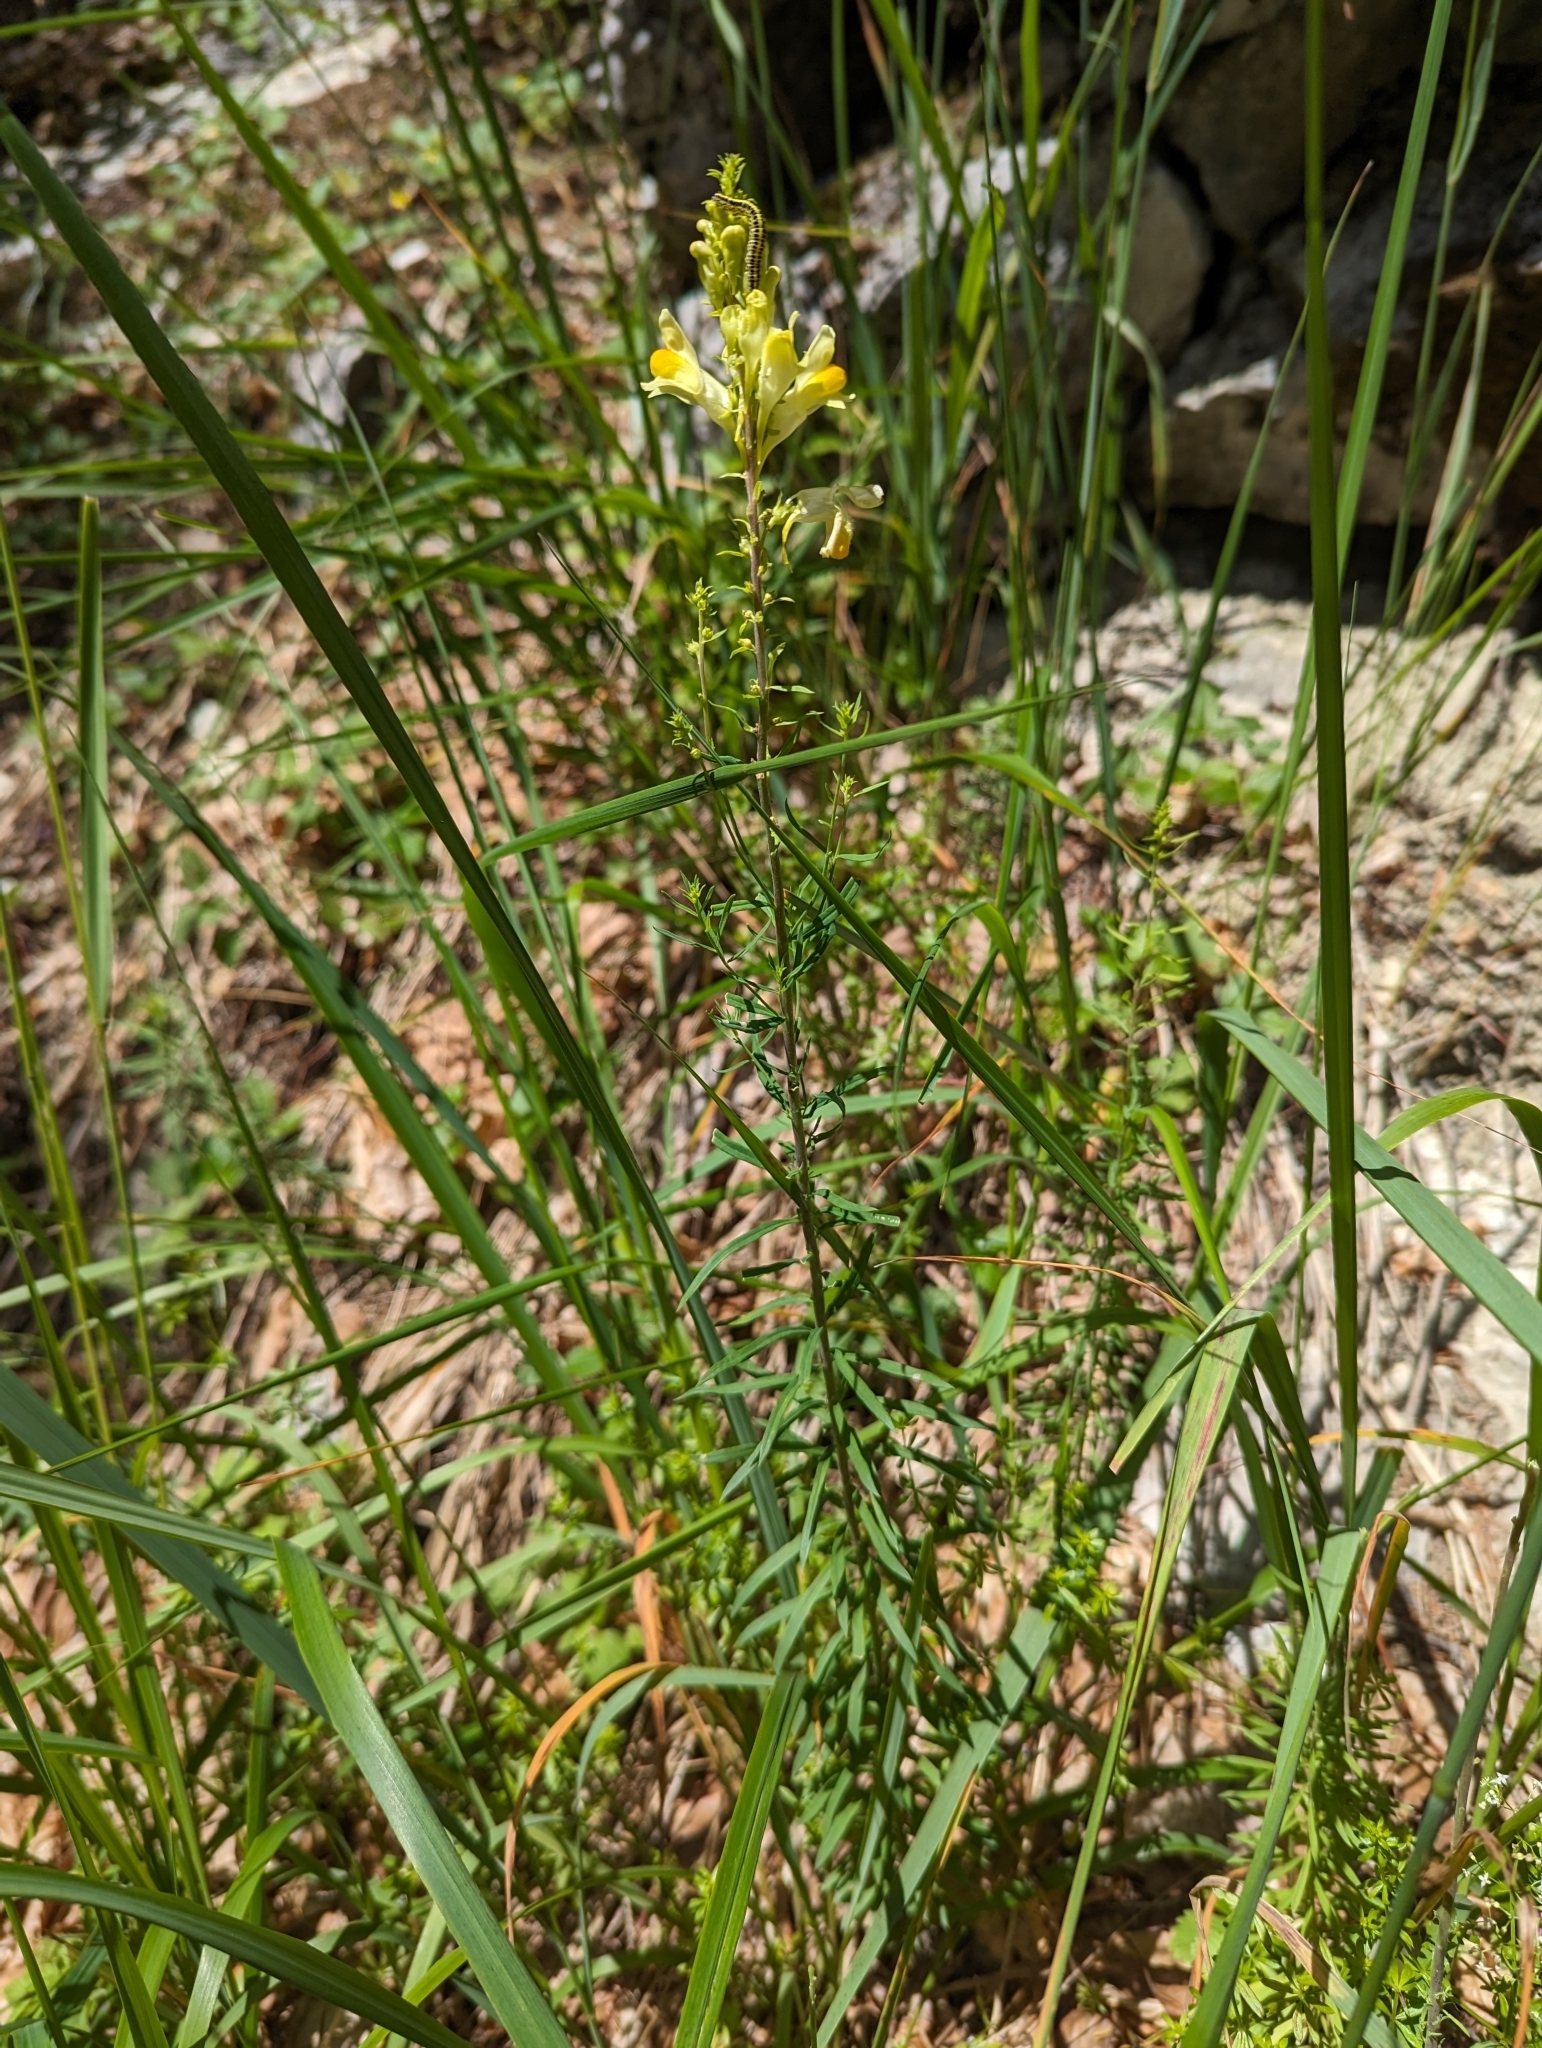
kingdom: Plantae
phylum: Tracheophyta
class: Magnoliopsida
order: Lamiales
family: Plantaginaceae
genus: Linaria
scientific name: Linaria vulgaris
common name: Butter and eggs
